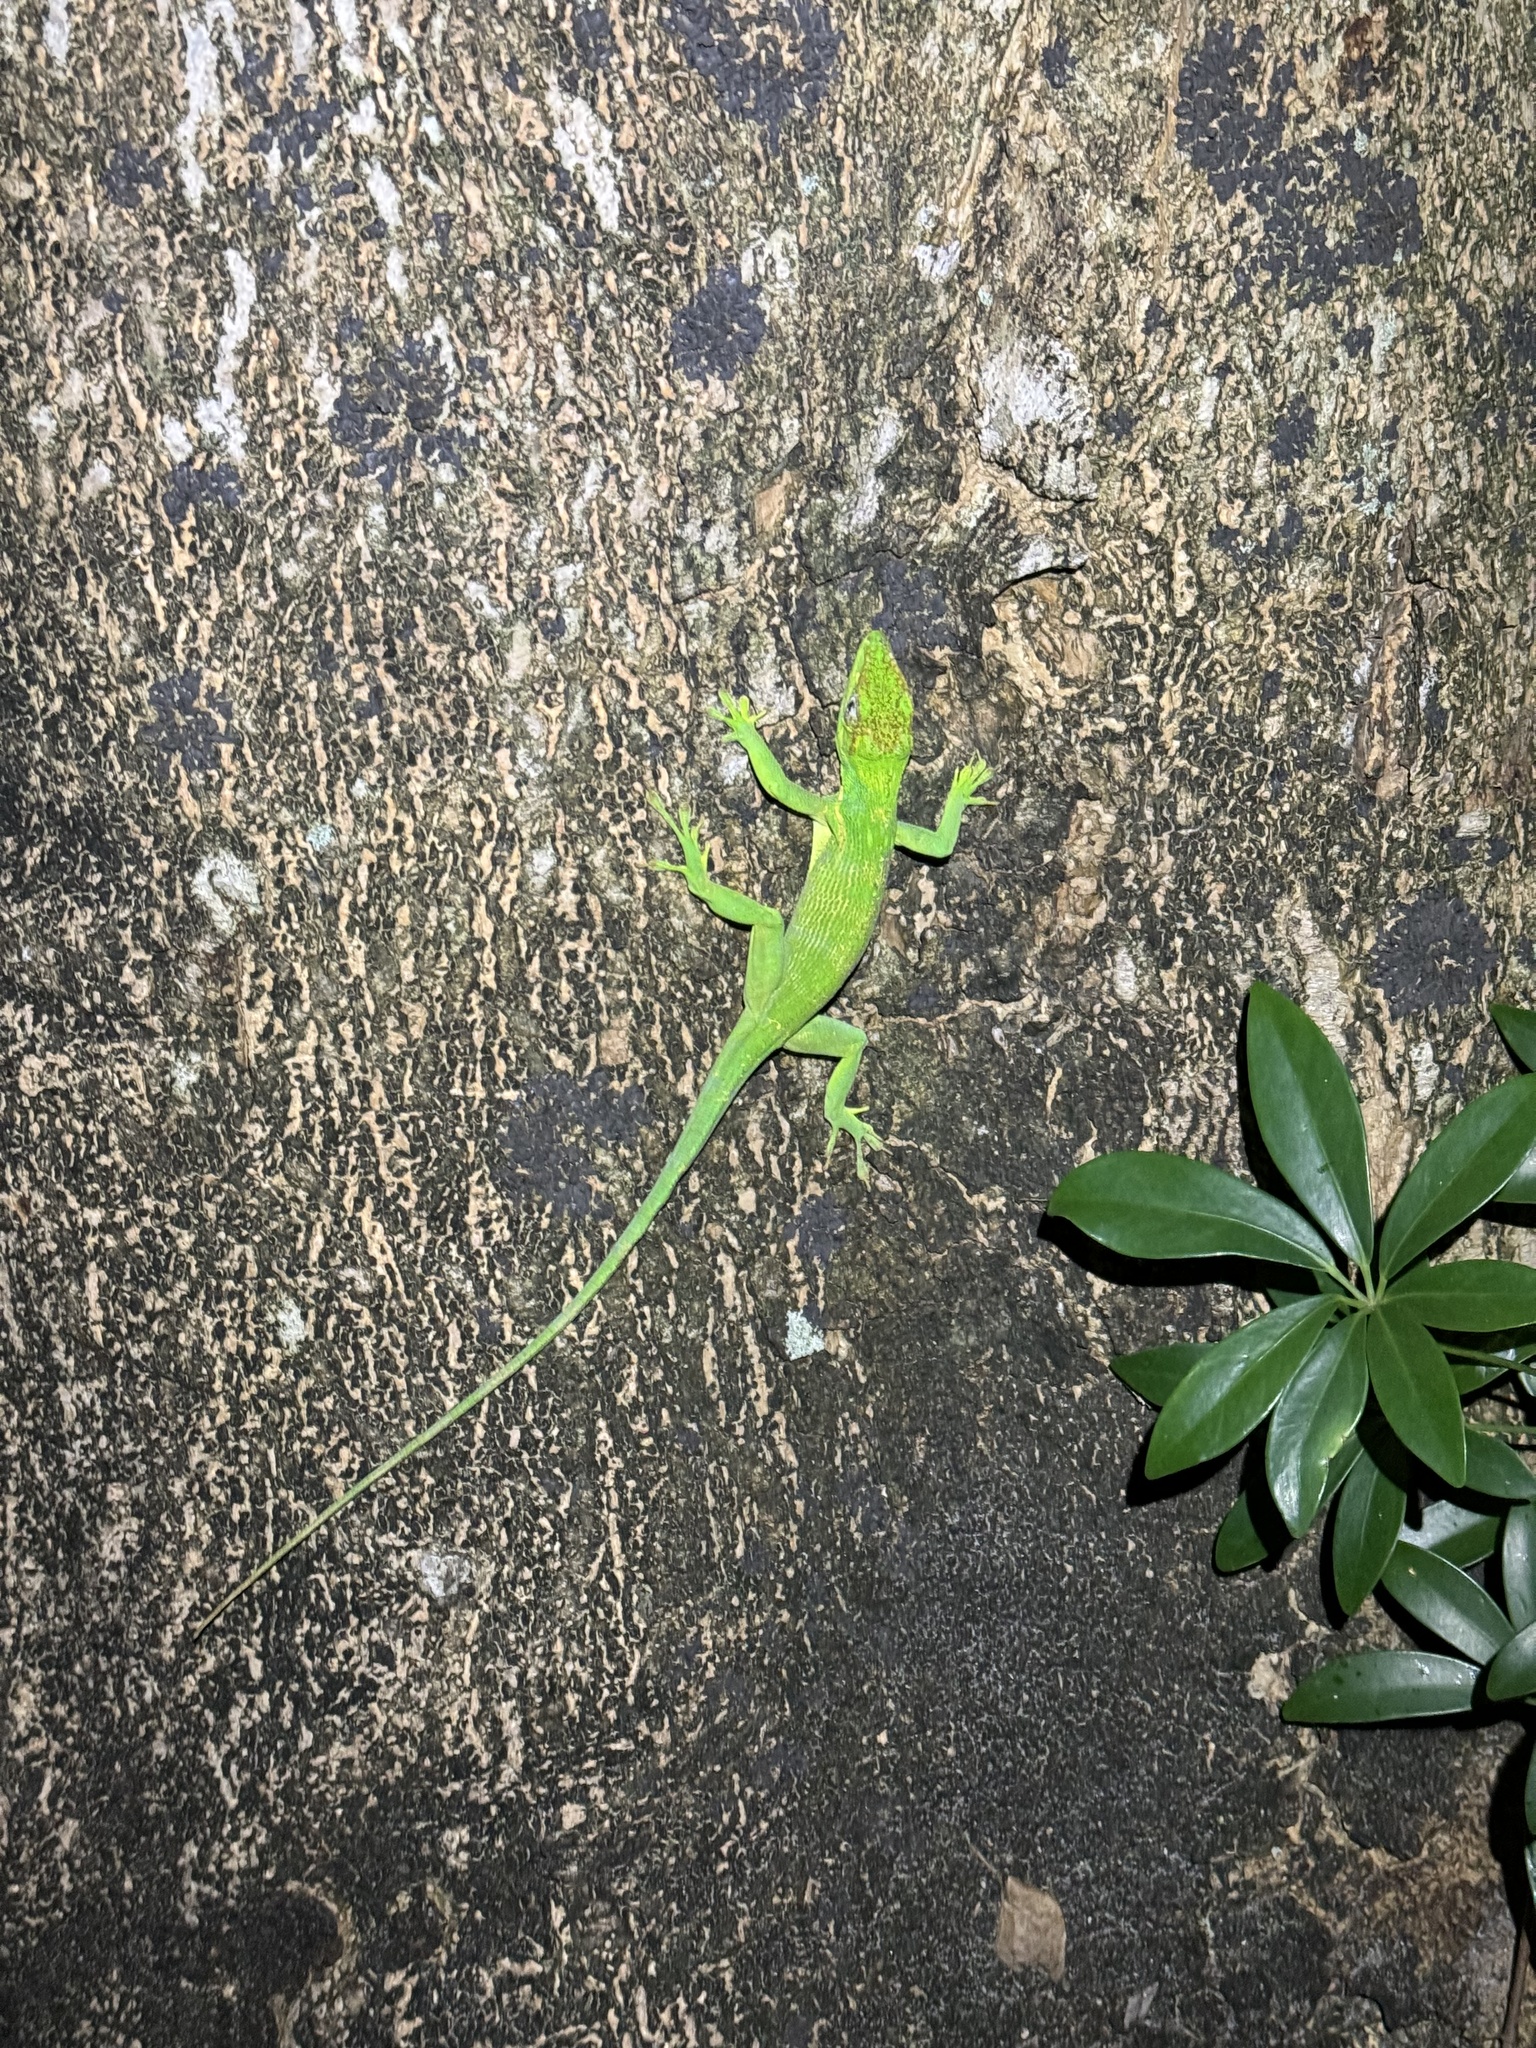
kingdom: Animalia
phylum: Chordata
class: Squamata
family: Dactyloidae
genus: Anolis
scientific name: Anolis equestris
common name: Knight anole
